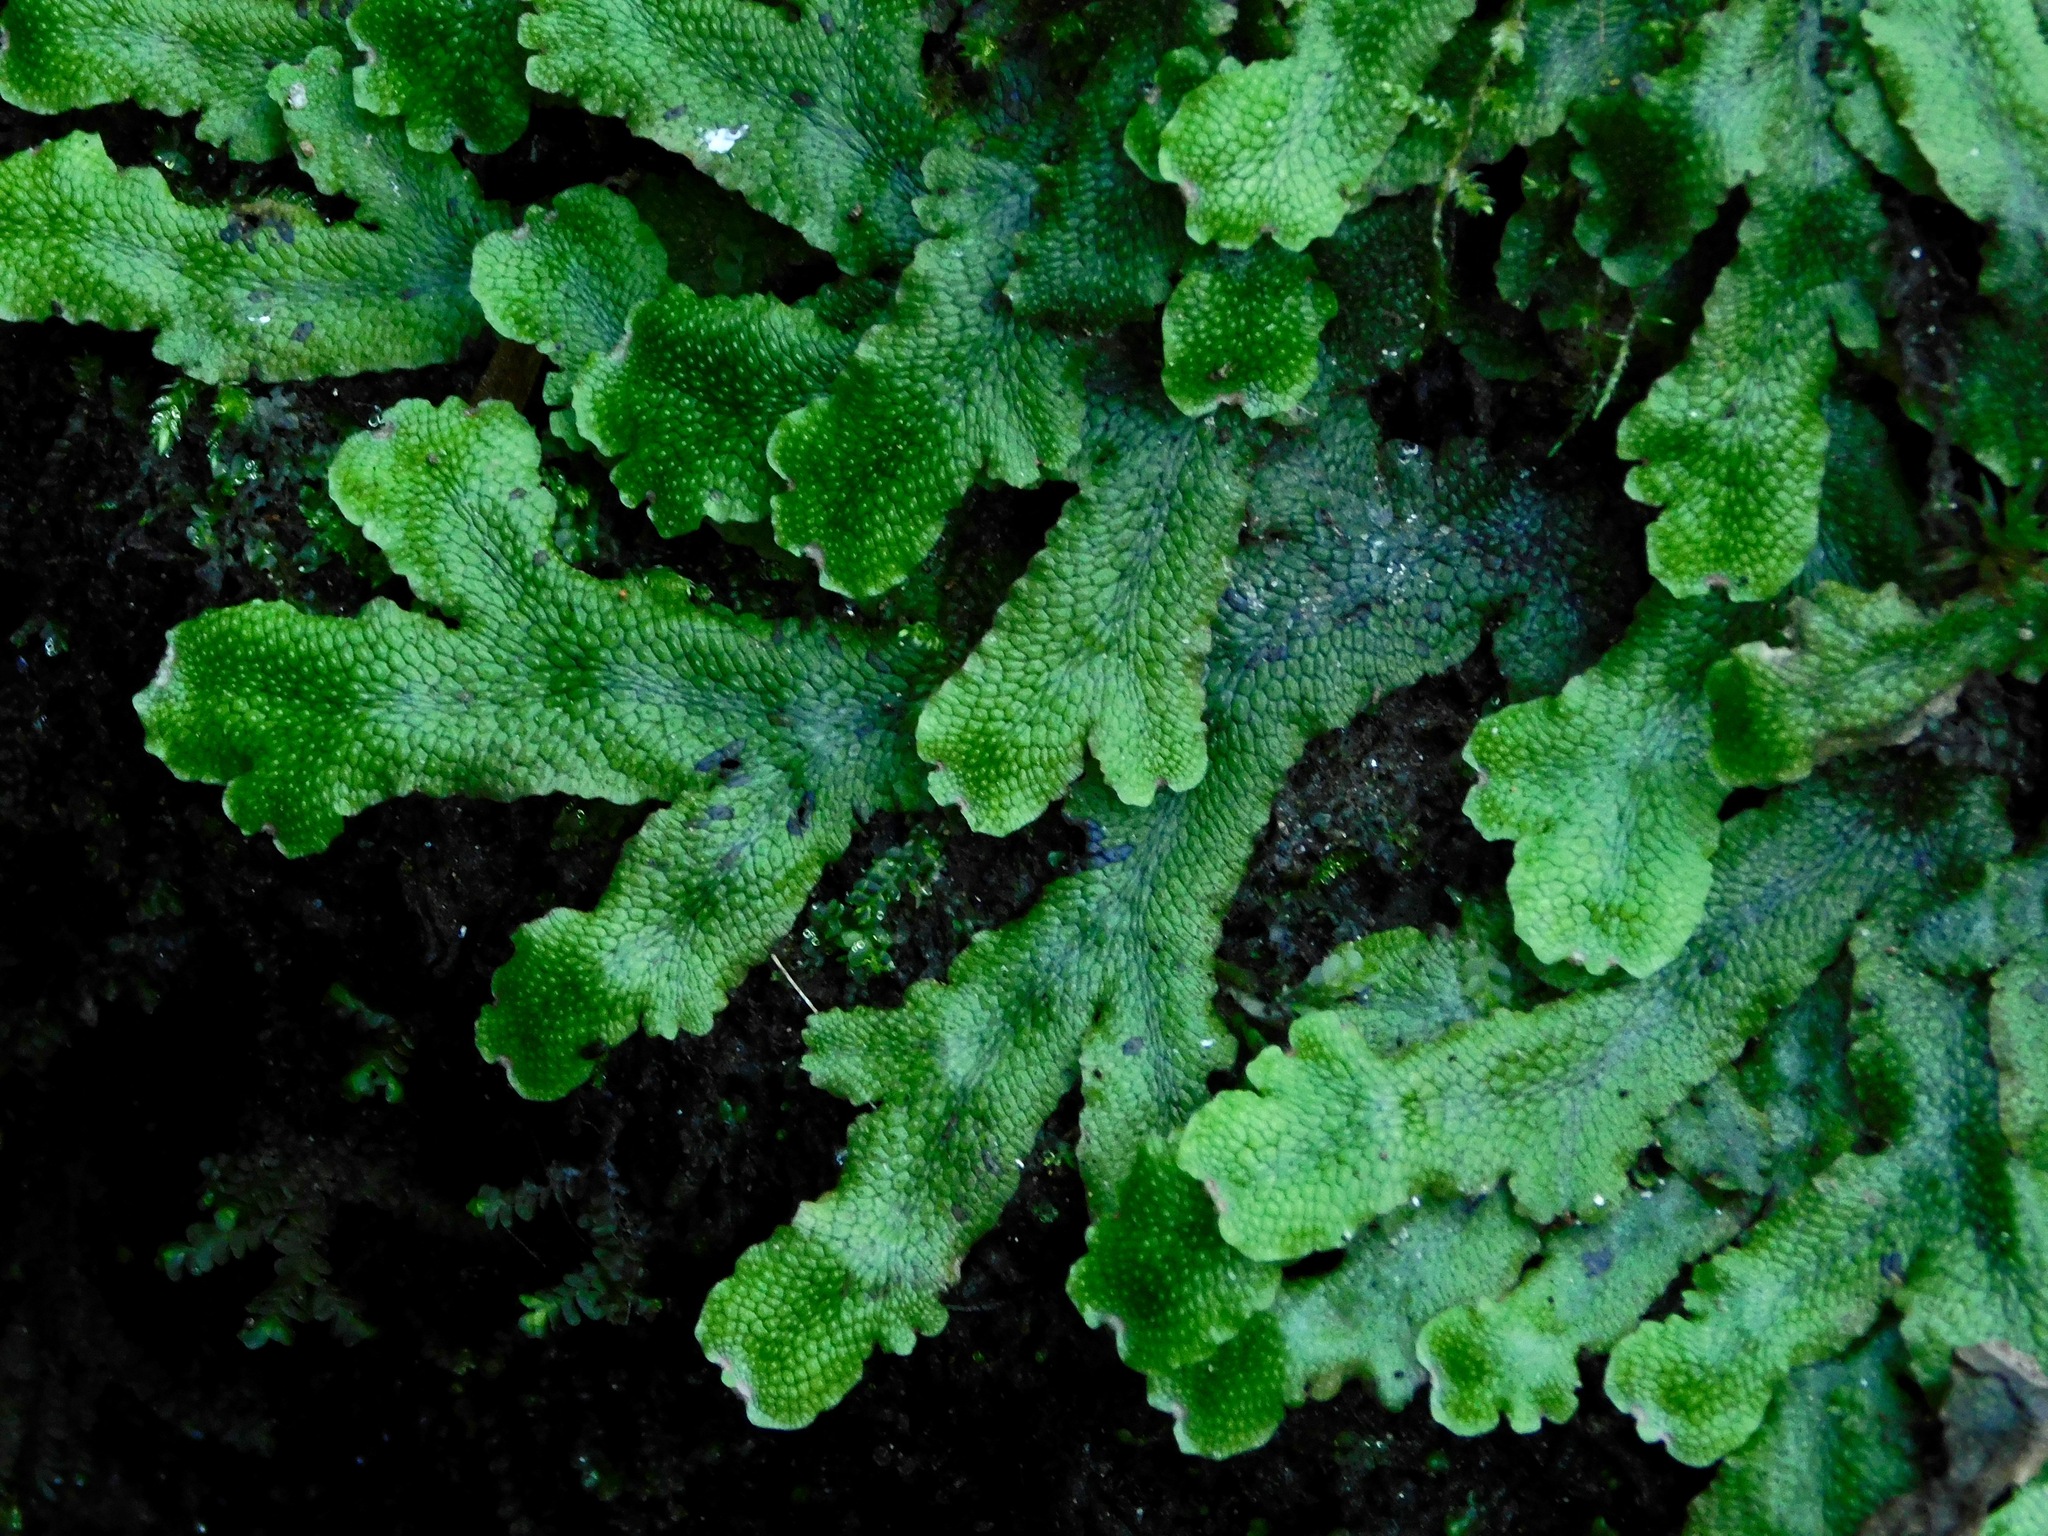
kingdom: Plantae
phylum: Marchantiophyta
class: Marchantiopsida
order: Marchantiales
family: Conocephalaceae
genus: Conocephalum
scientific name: Conocephalum salebrosum
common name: Cat-tongue liverwort
